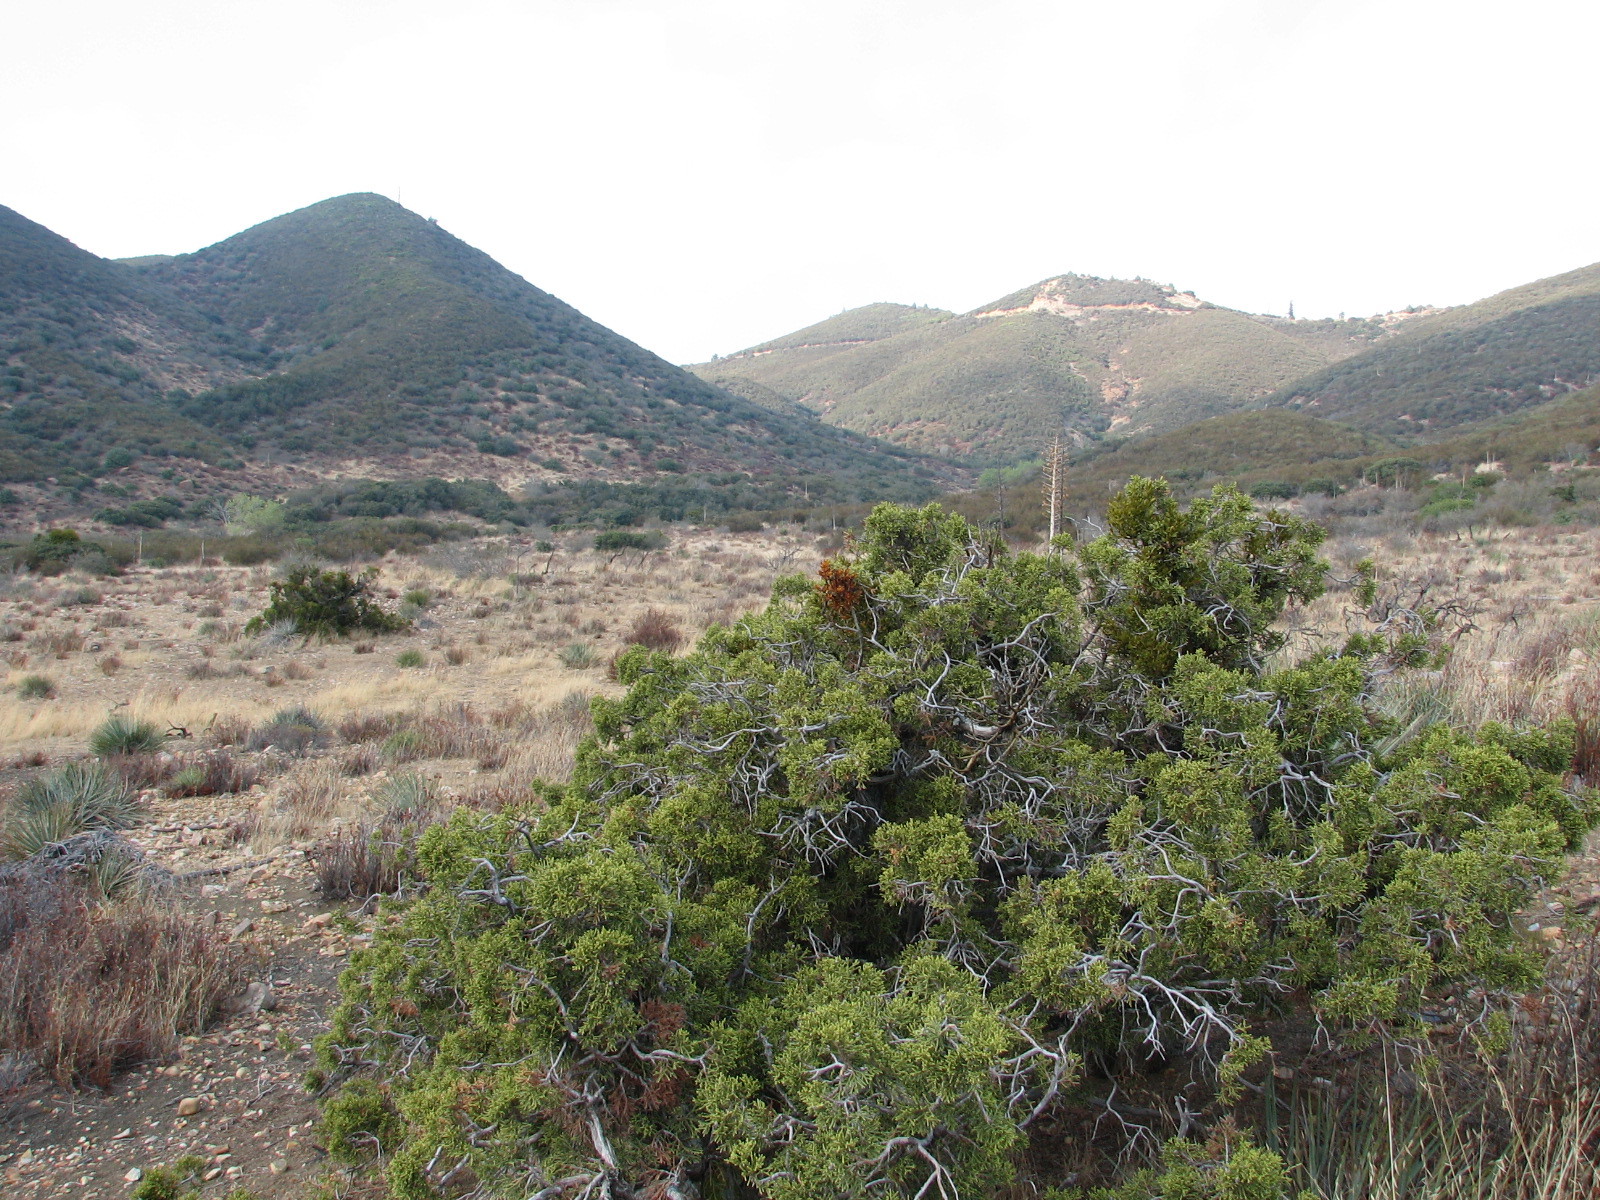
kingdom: Plantae
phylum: Tracheophyta
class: Liliopsida
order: Poales
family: Poaceae
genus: Avena
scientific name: Avena
